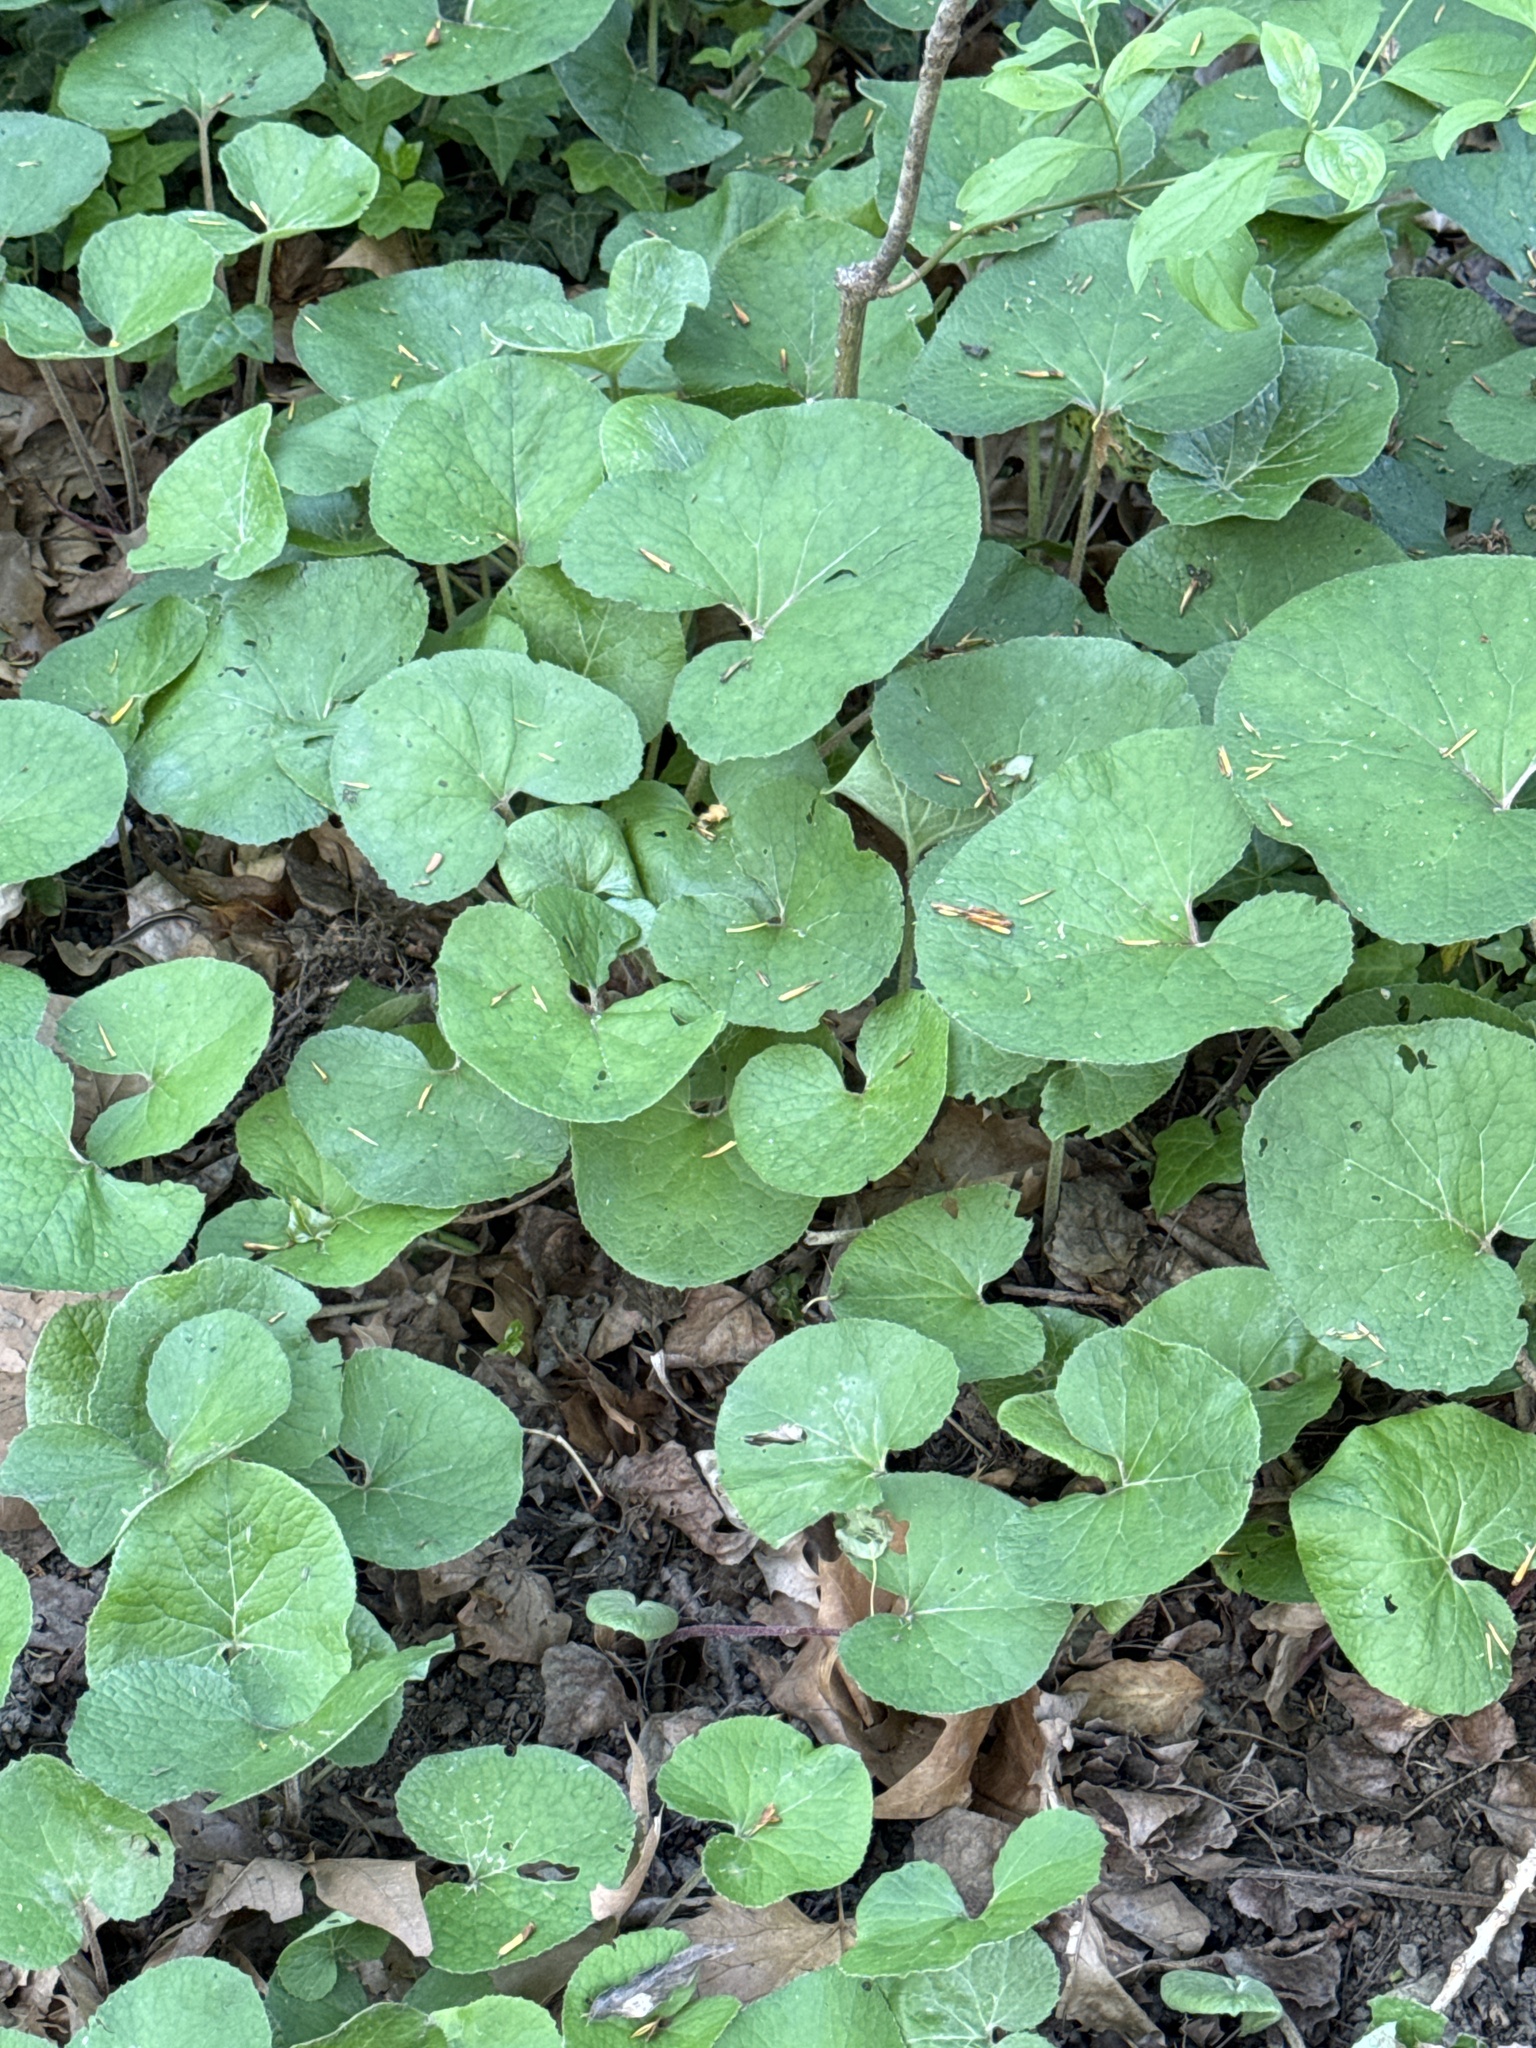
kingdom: Plantae
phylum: Tracheophyta
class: Magnoliopsida
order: Piperales
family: Aristolochiaceae
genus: Asarum
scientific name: Asarum europaeum
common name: Asarabacca
